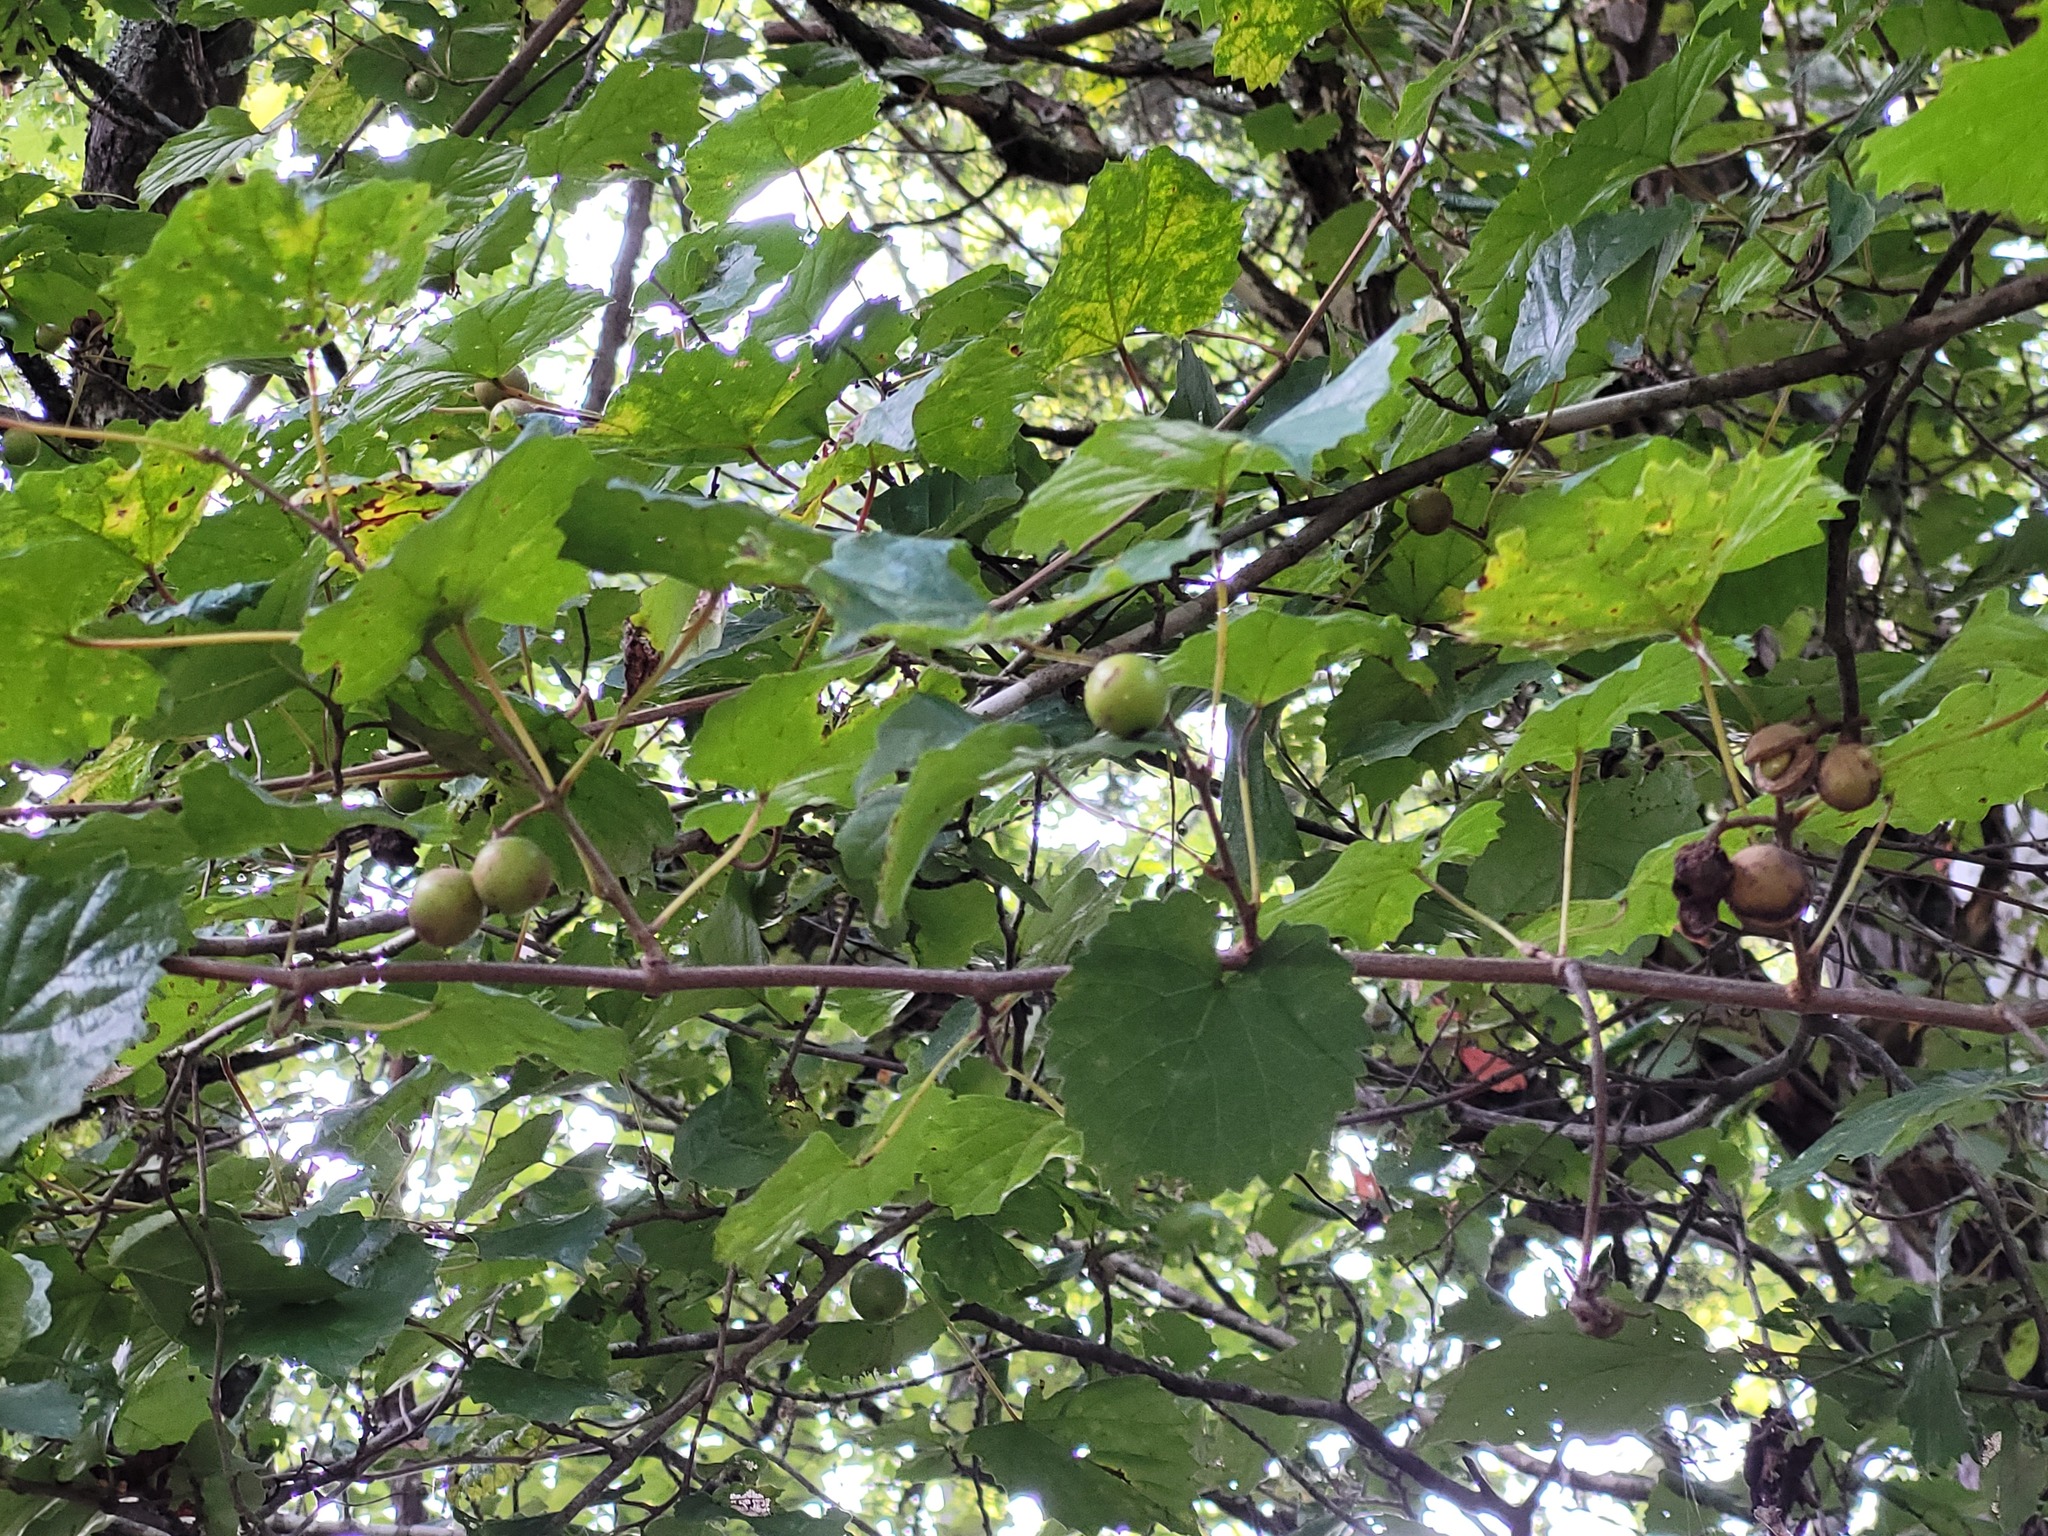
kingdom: Plantae
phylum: Tracheophyta
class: Magnoliopsida
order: Vitales
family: Vitaceae
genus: Vitis
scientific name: Vitis rotundifolia
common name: Muscadine grape
